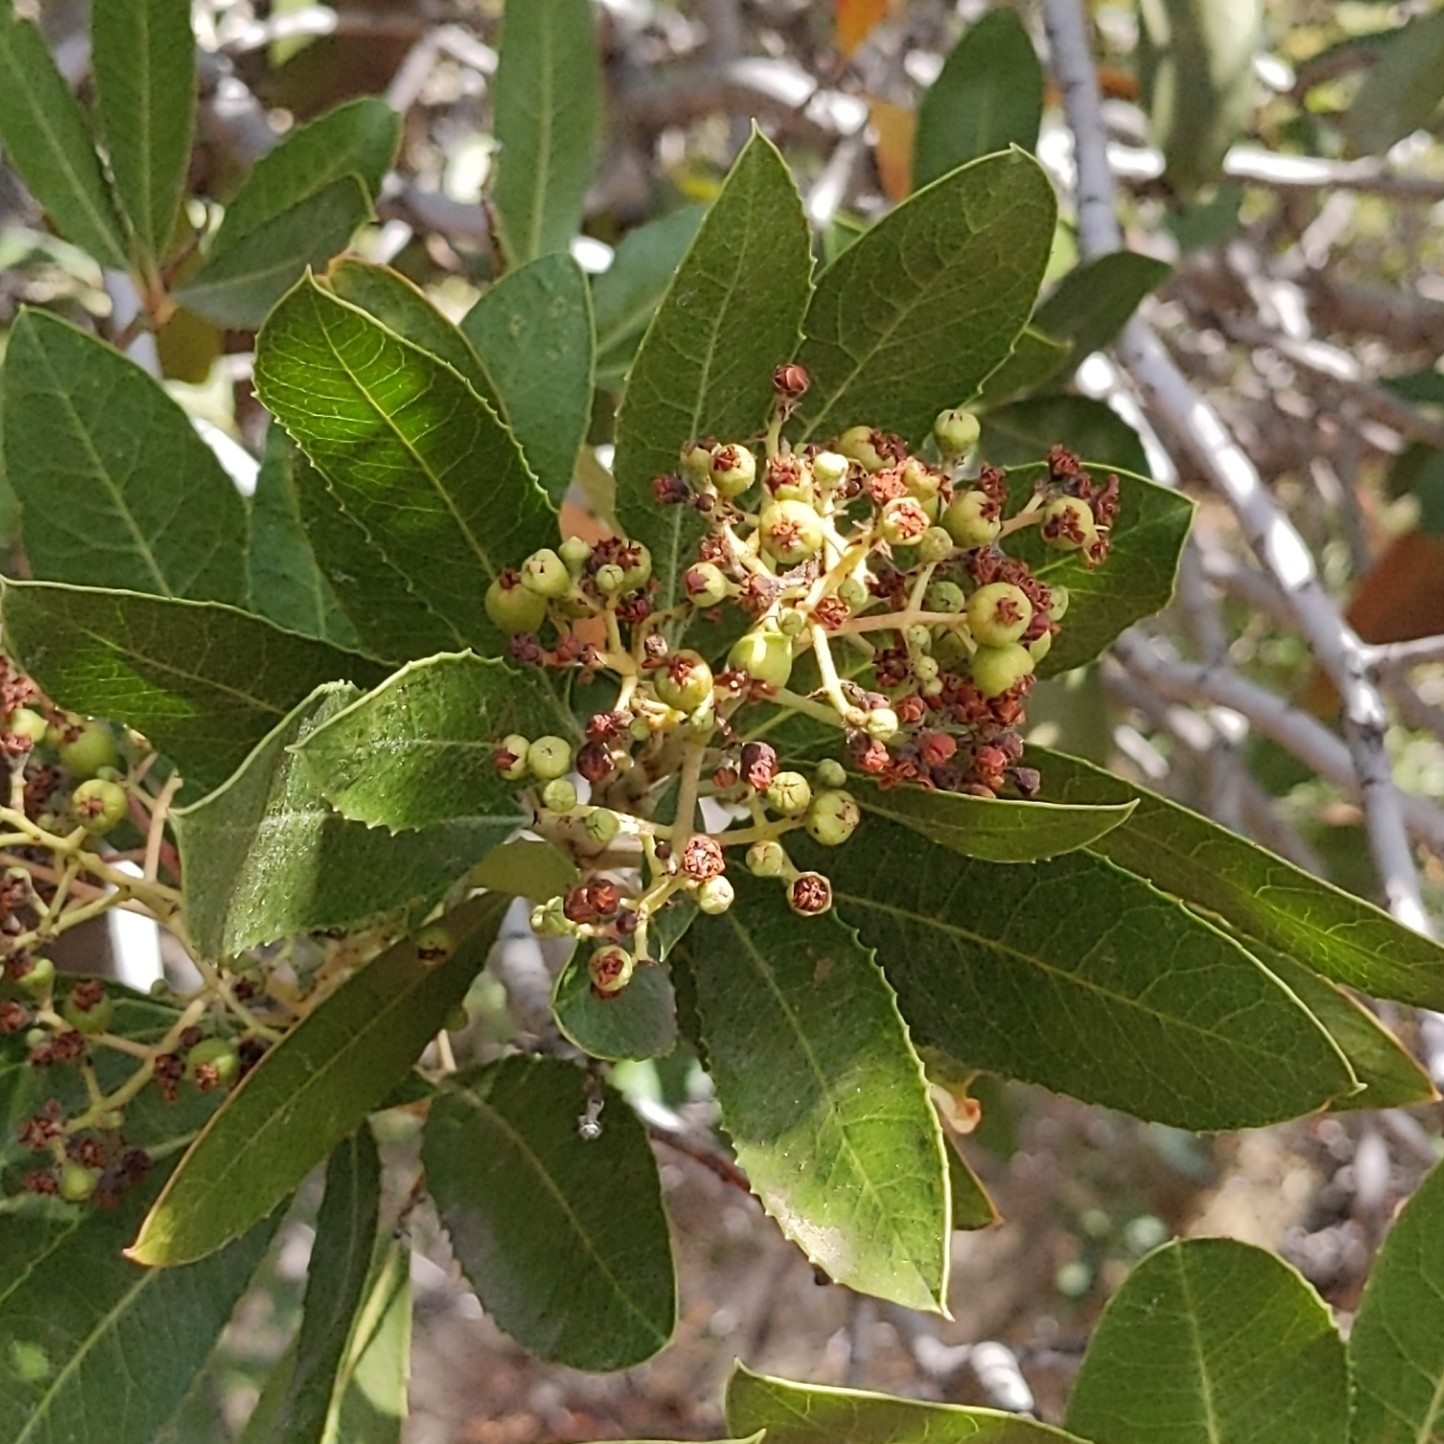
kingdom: Plantae
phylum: Tracheophyta
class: Magnoliopsida
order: Rosales
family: Rosaceae
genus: Heteromeles
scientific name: Heteromeles arbutifolia
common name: California-holly
